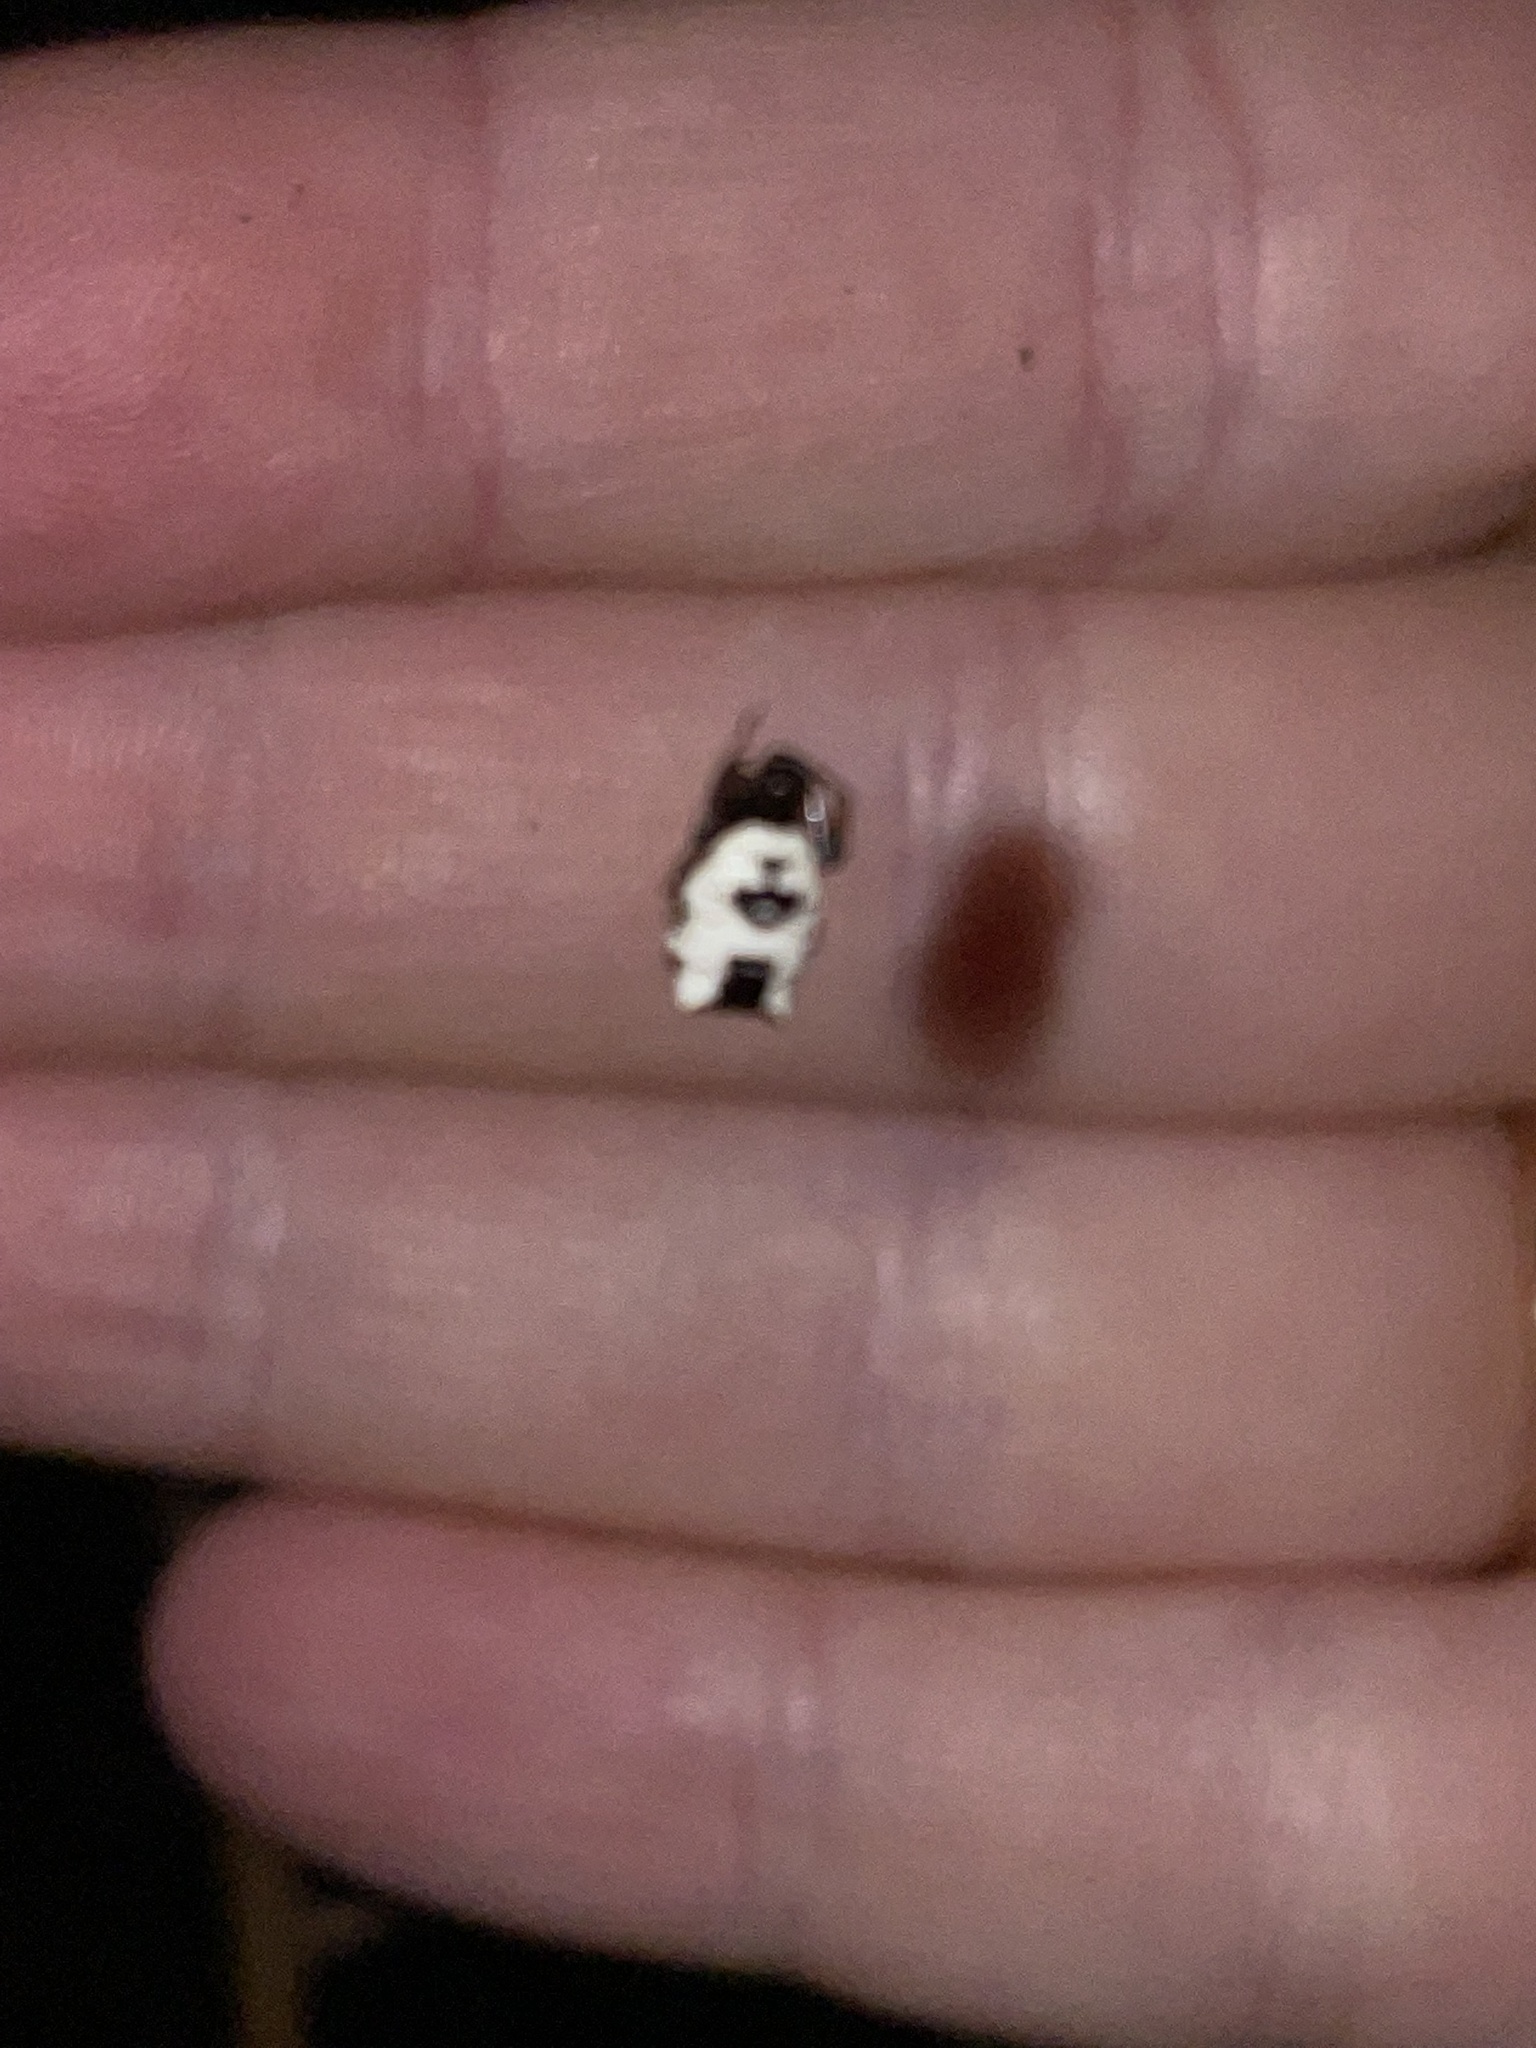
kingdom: Animalia
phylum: Arthropoda
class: Arachnida
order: Araneae
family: Araneidae
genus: Micrathena
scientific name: Micrathena mitrata
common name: Orb weavers
